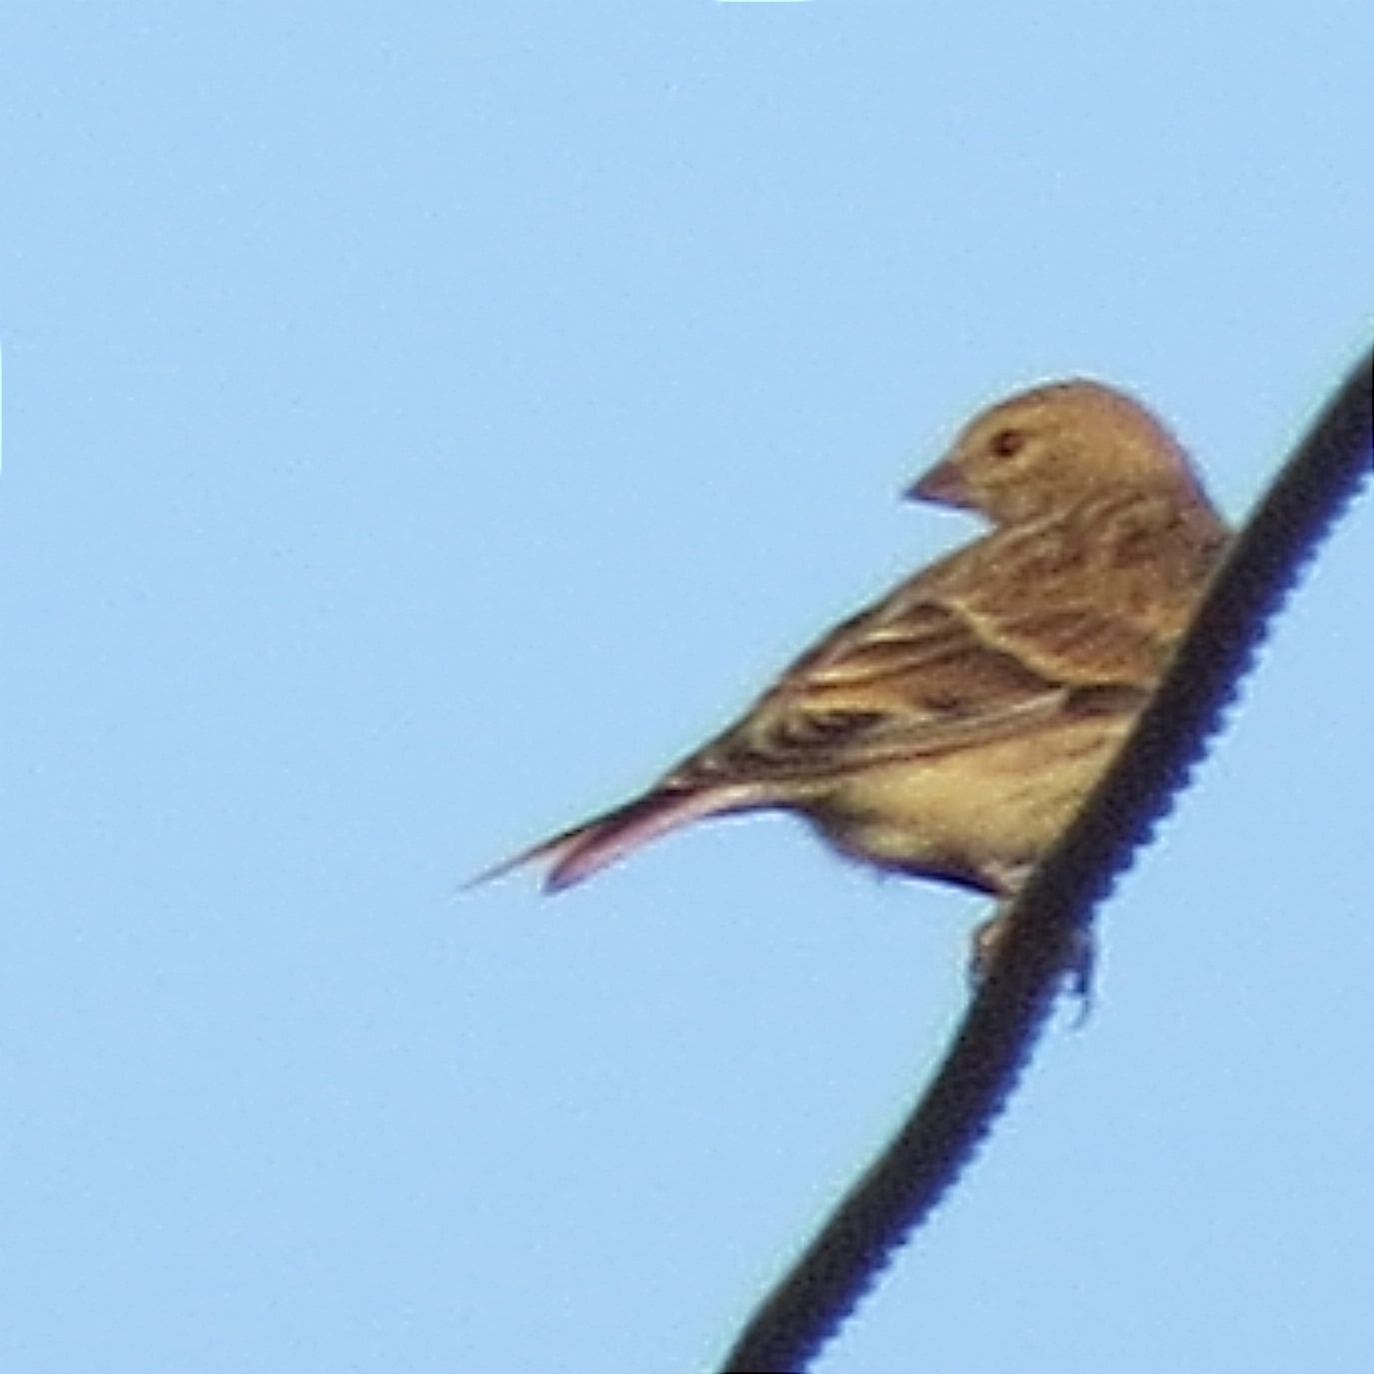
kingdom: Animalia
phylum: Chordata
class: Aves
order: Passeriformes
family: Fringillidae
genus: Linaria
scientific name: Linaria cannabina
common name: Common linnet
